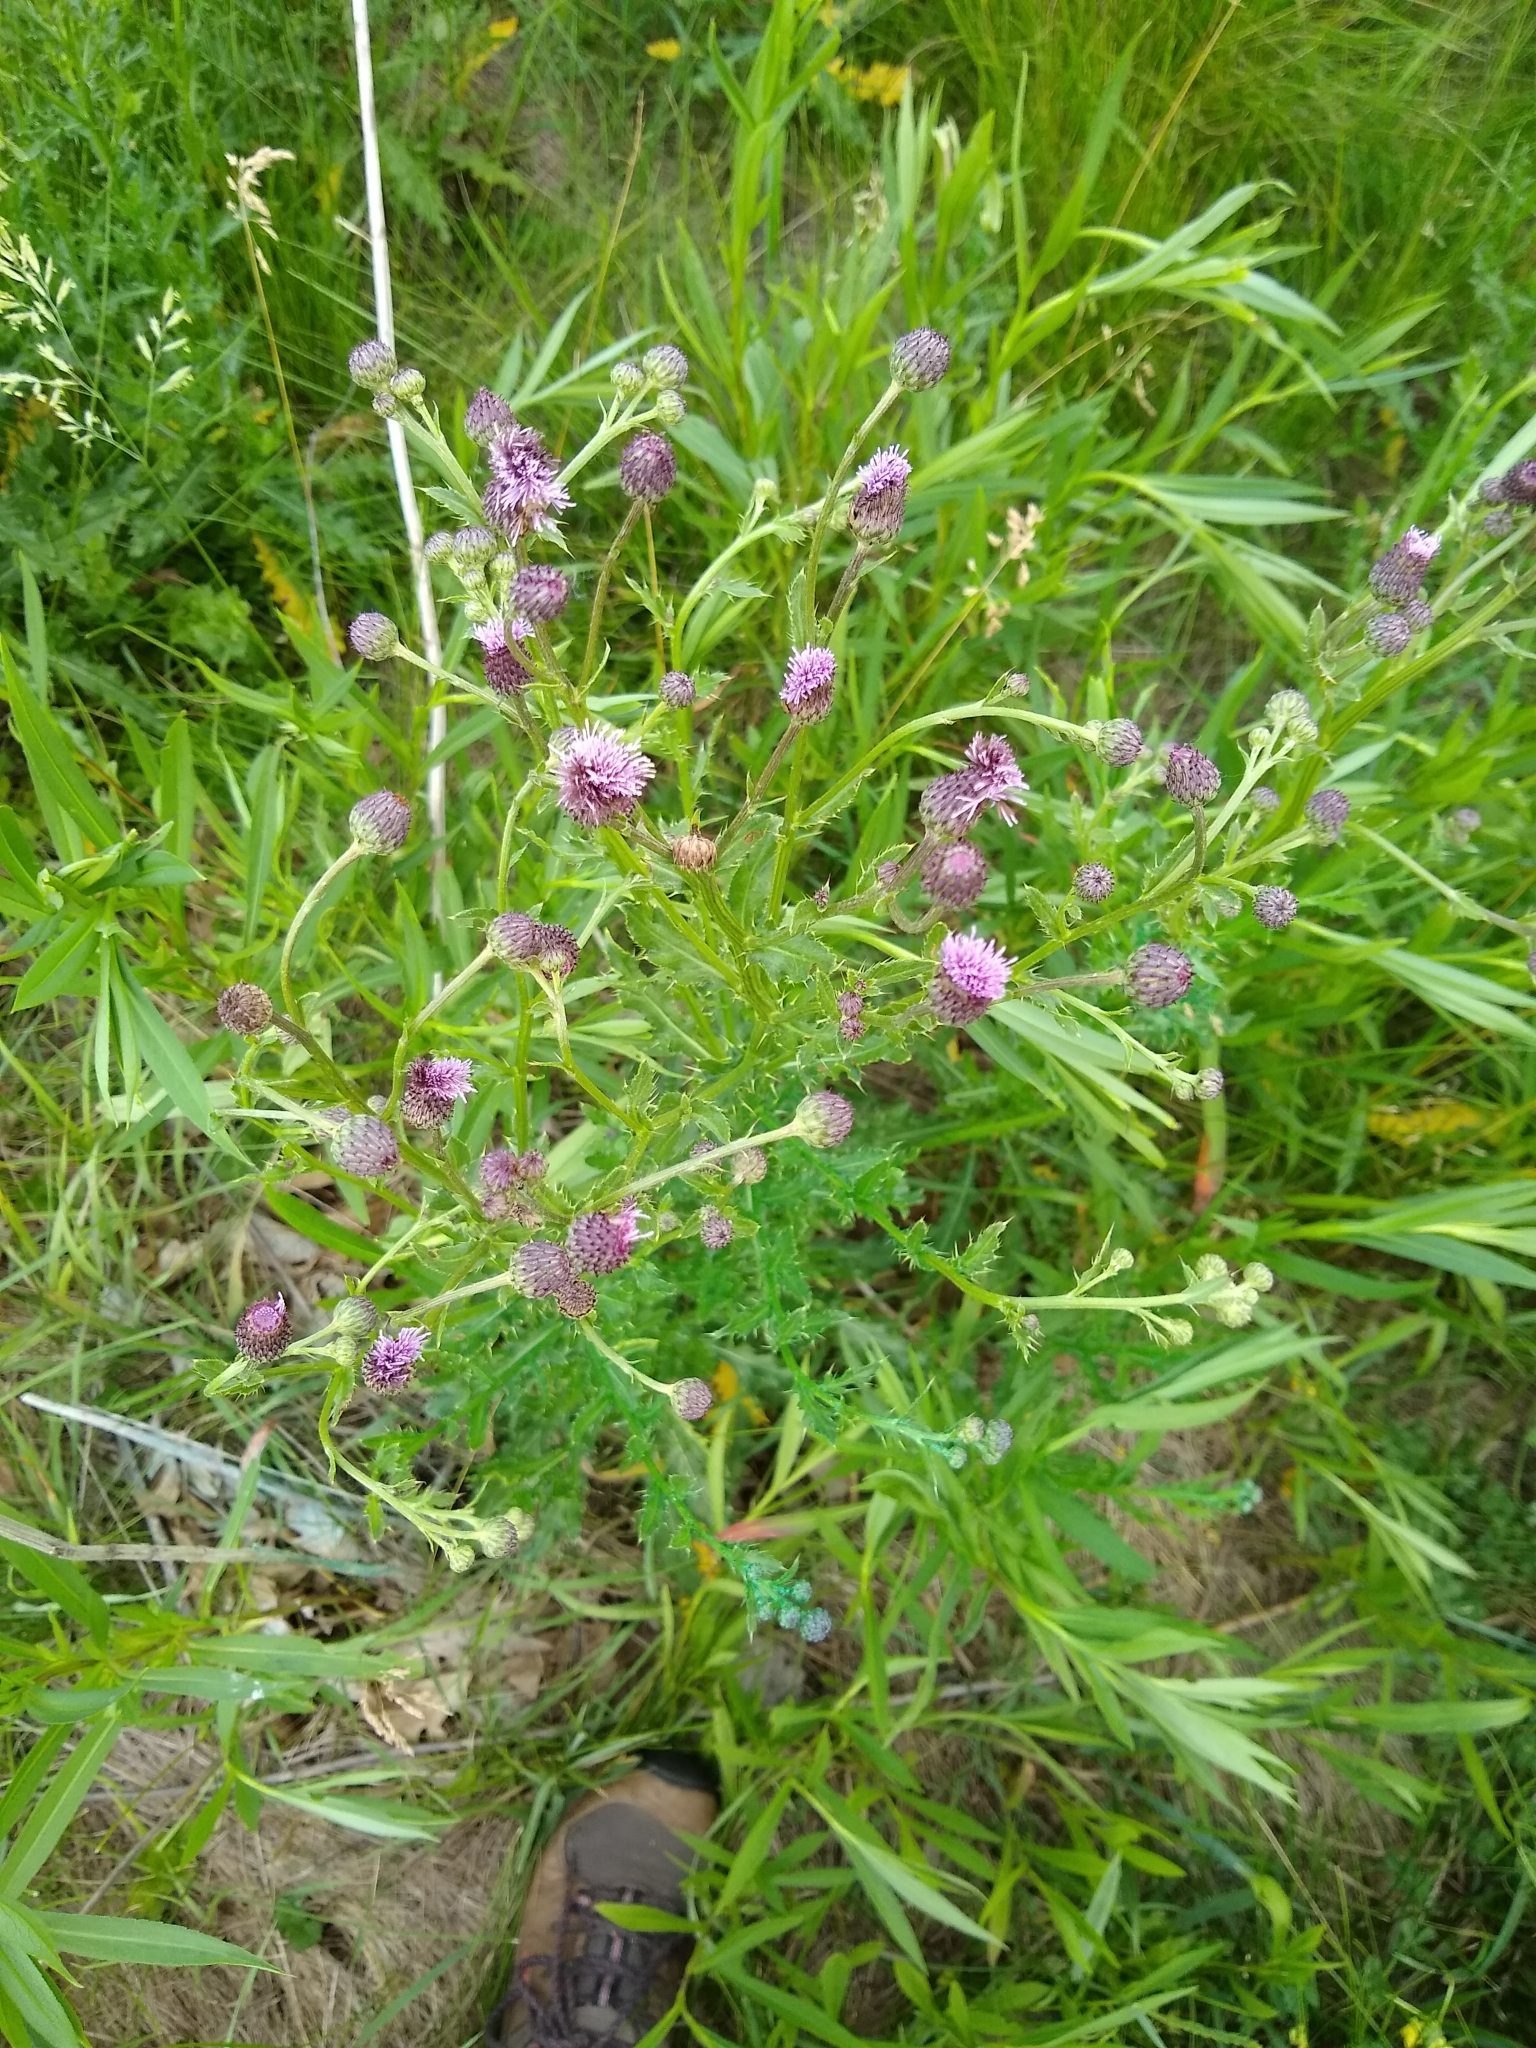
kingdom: Plantae
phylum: Tracheophyta
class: Magnoliopsida
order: Asterales
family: Asteraceae
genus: Cirsium
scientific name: Cirsium arvense
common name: Creeping thistle
